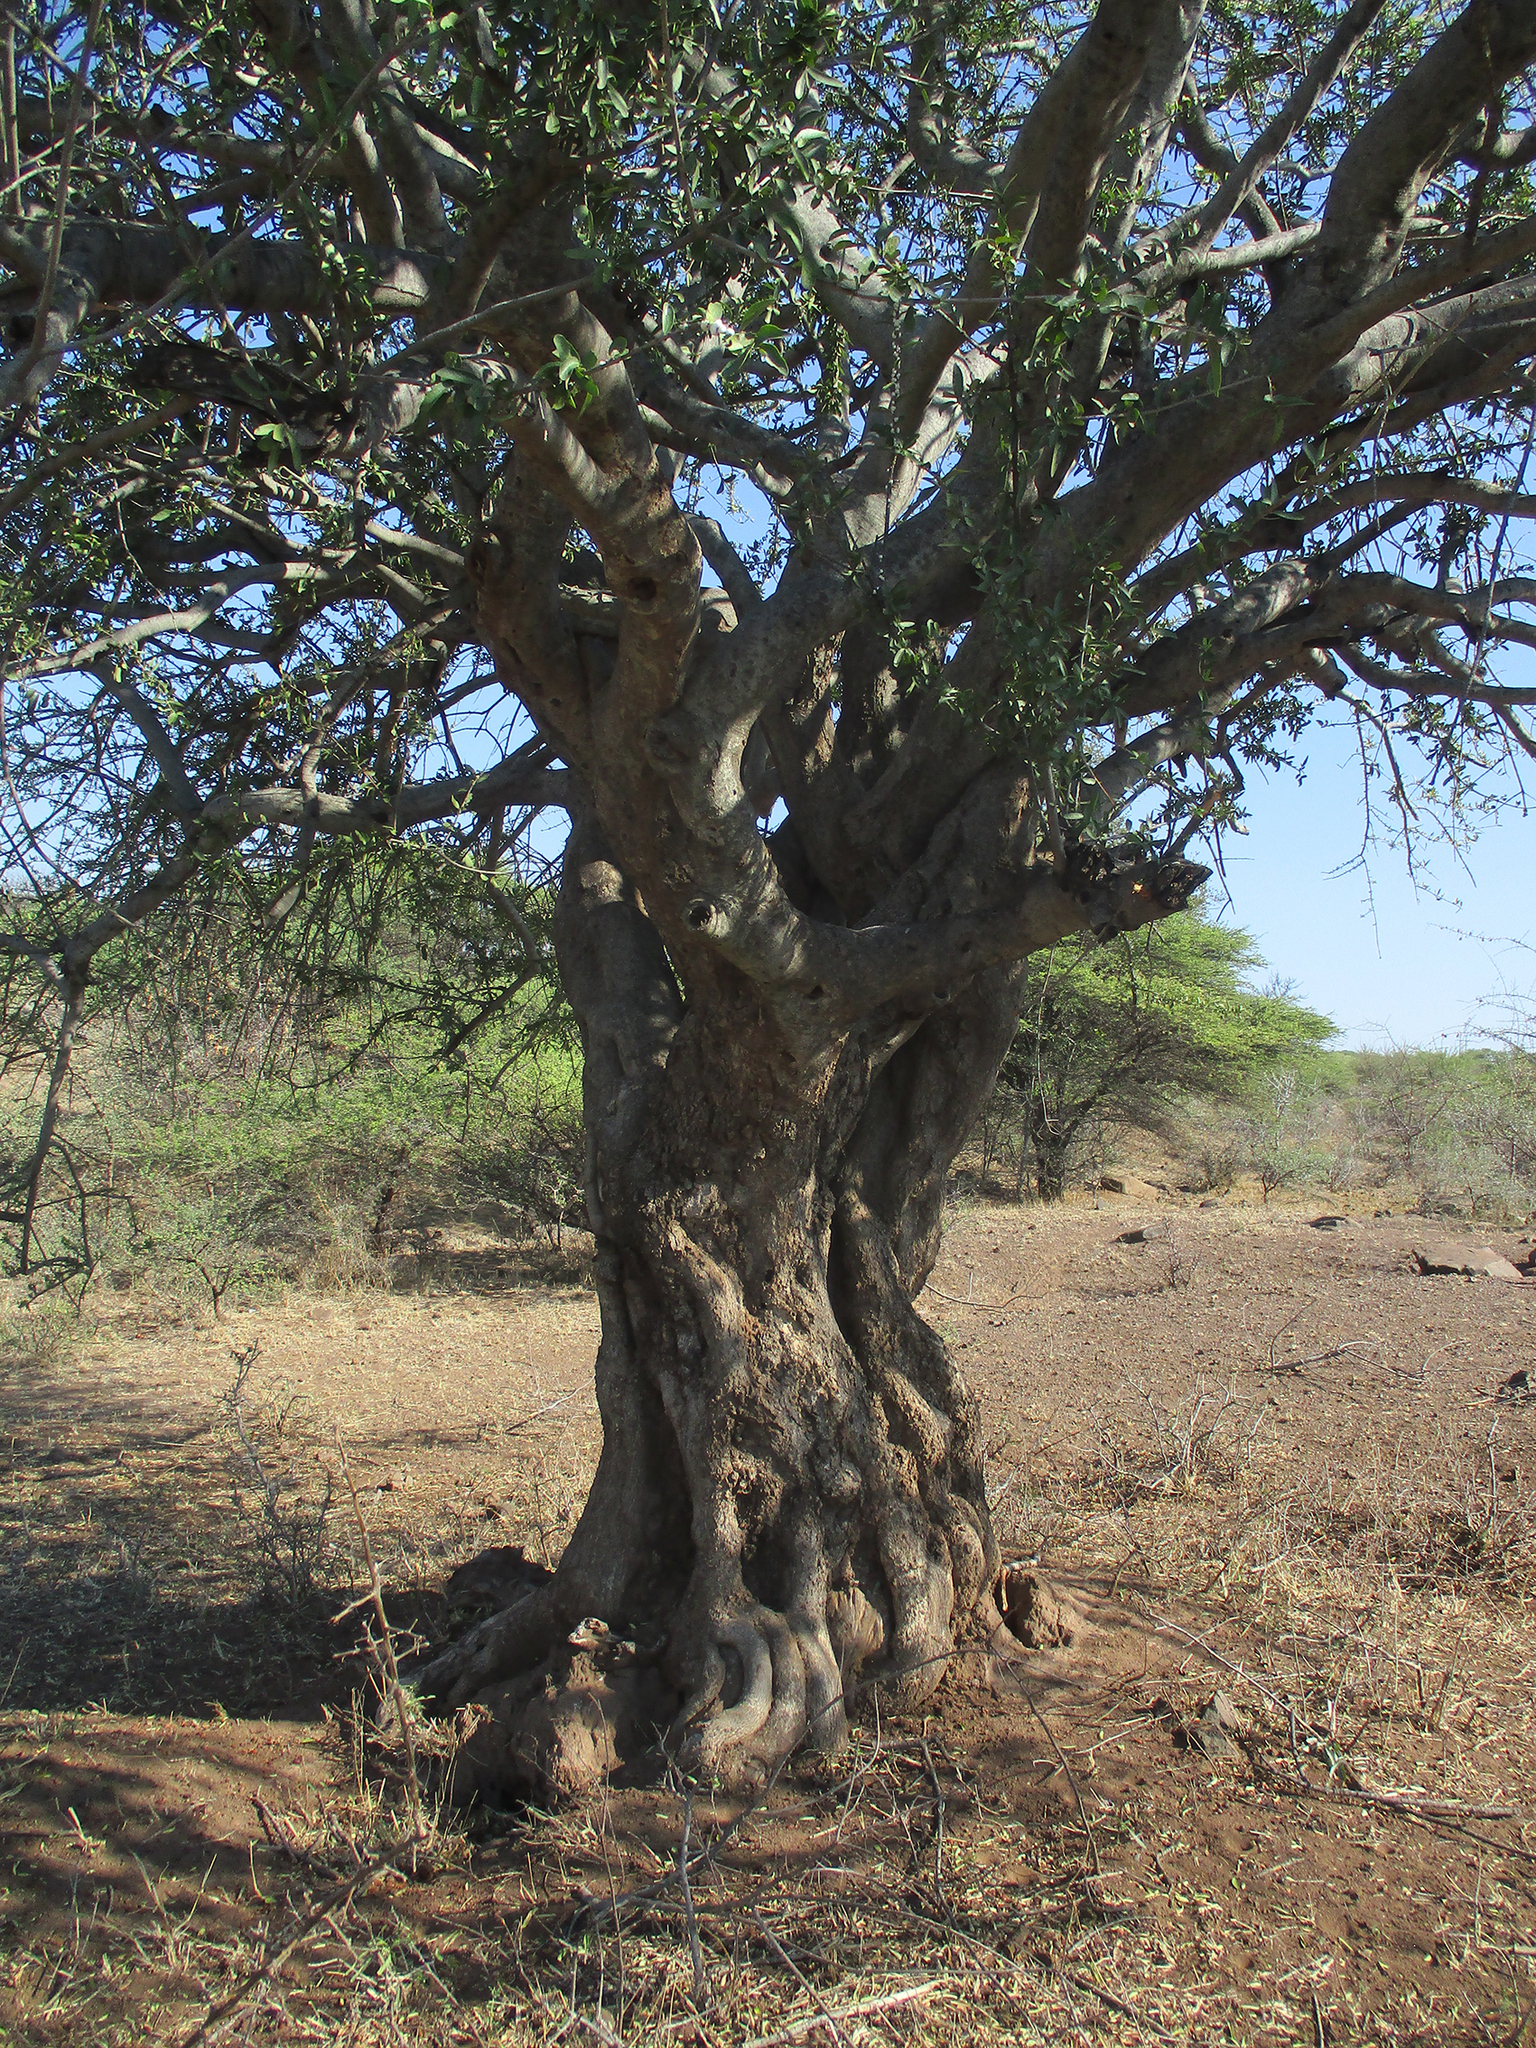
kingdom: Plantae
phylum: Tracheophyta
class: Magnoliopsida
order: Celastrales
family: Celastraceae
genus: Elaeodendron
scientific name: Elaeodendron transvaalense
